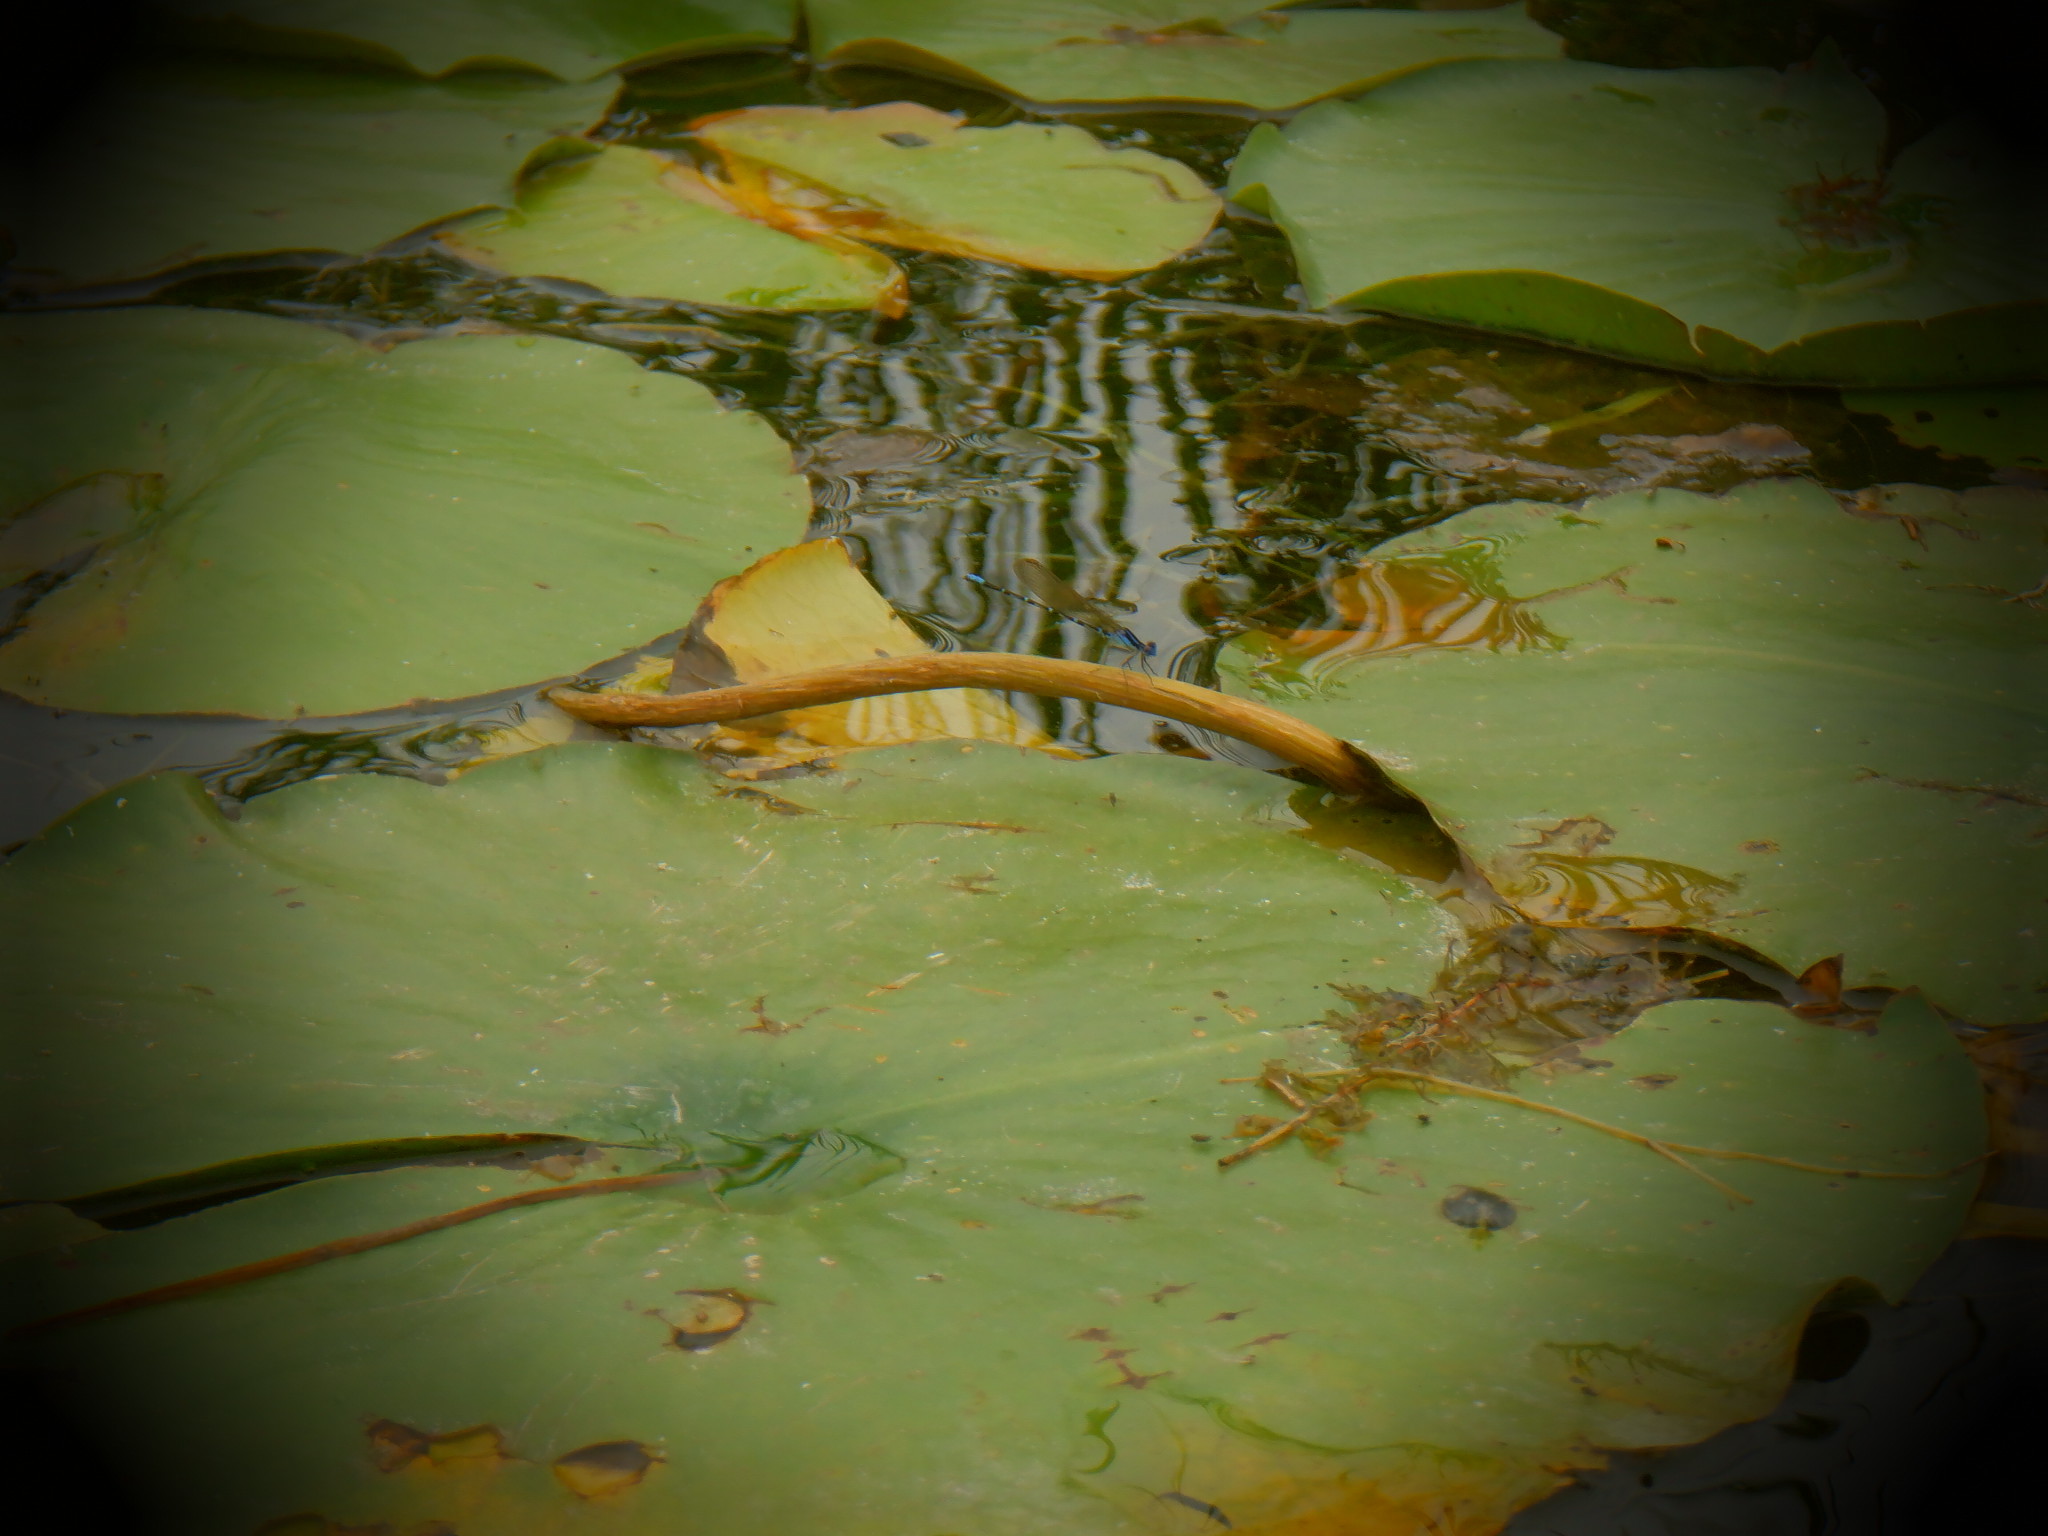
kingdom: Animalia
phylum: Arthropoda
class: Insecta
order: Odonata
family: Coenagrionidae
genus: Argia
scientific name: Argia sedula
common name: Blue-ringed dancer
